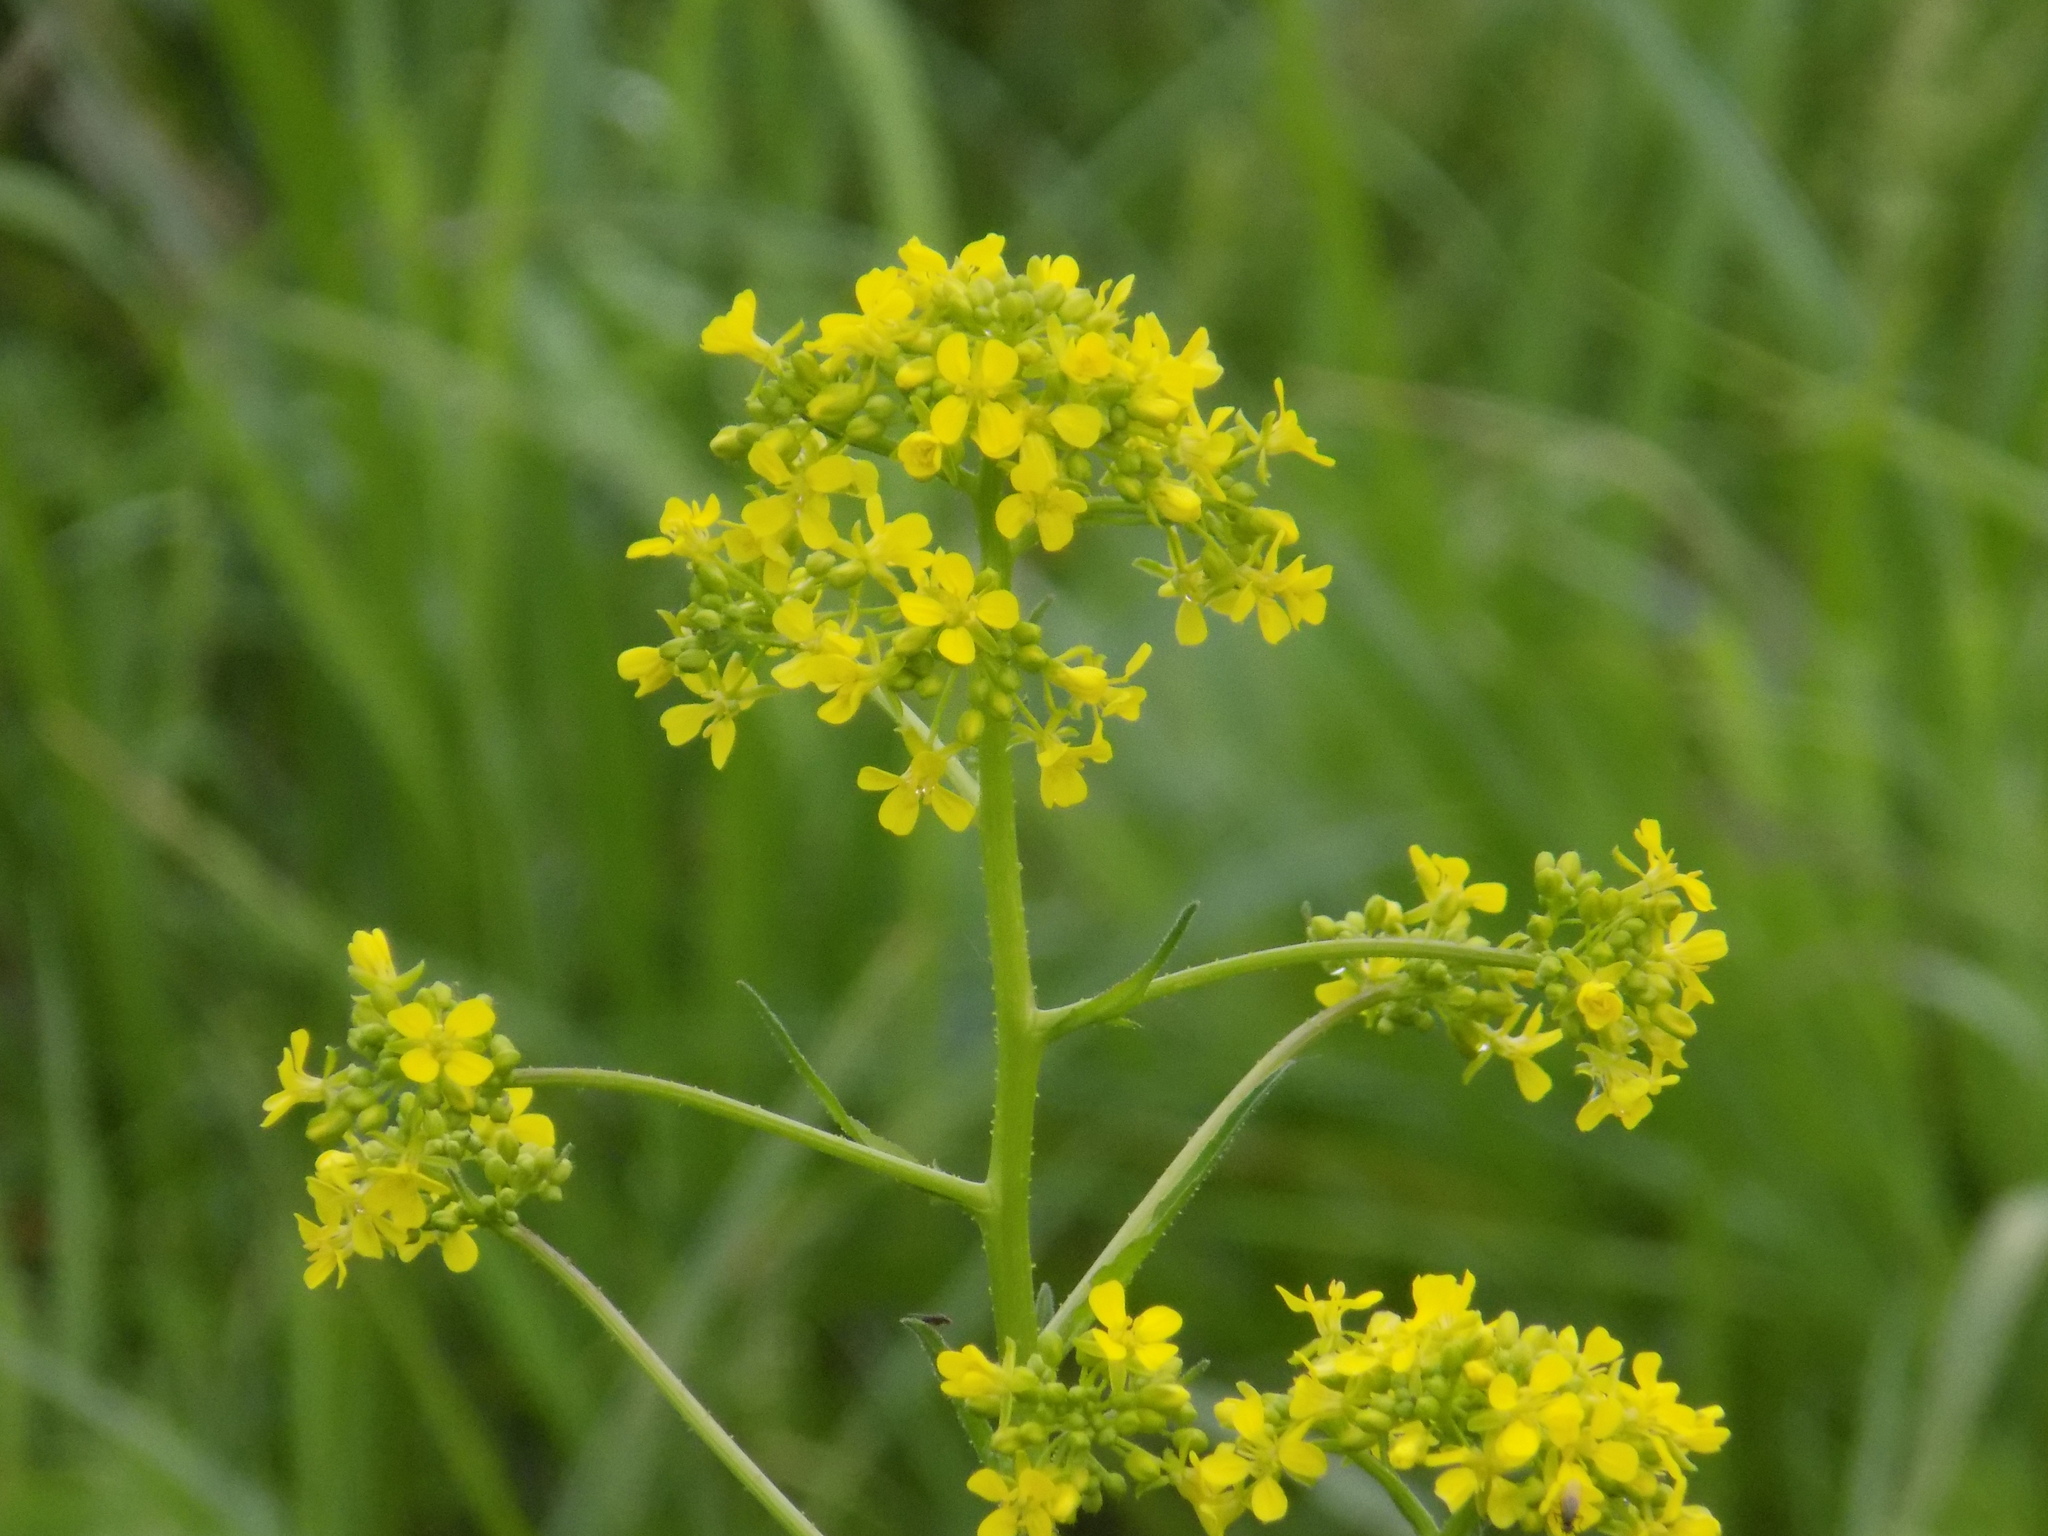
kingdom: Plantae
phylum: Tracheophyta
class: Magnoliopsida
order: Brassicales
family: Brassicaceae
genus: Bunias
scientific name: Bunias orientalis
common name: Warty-cabbage
